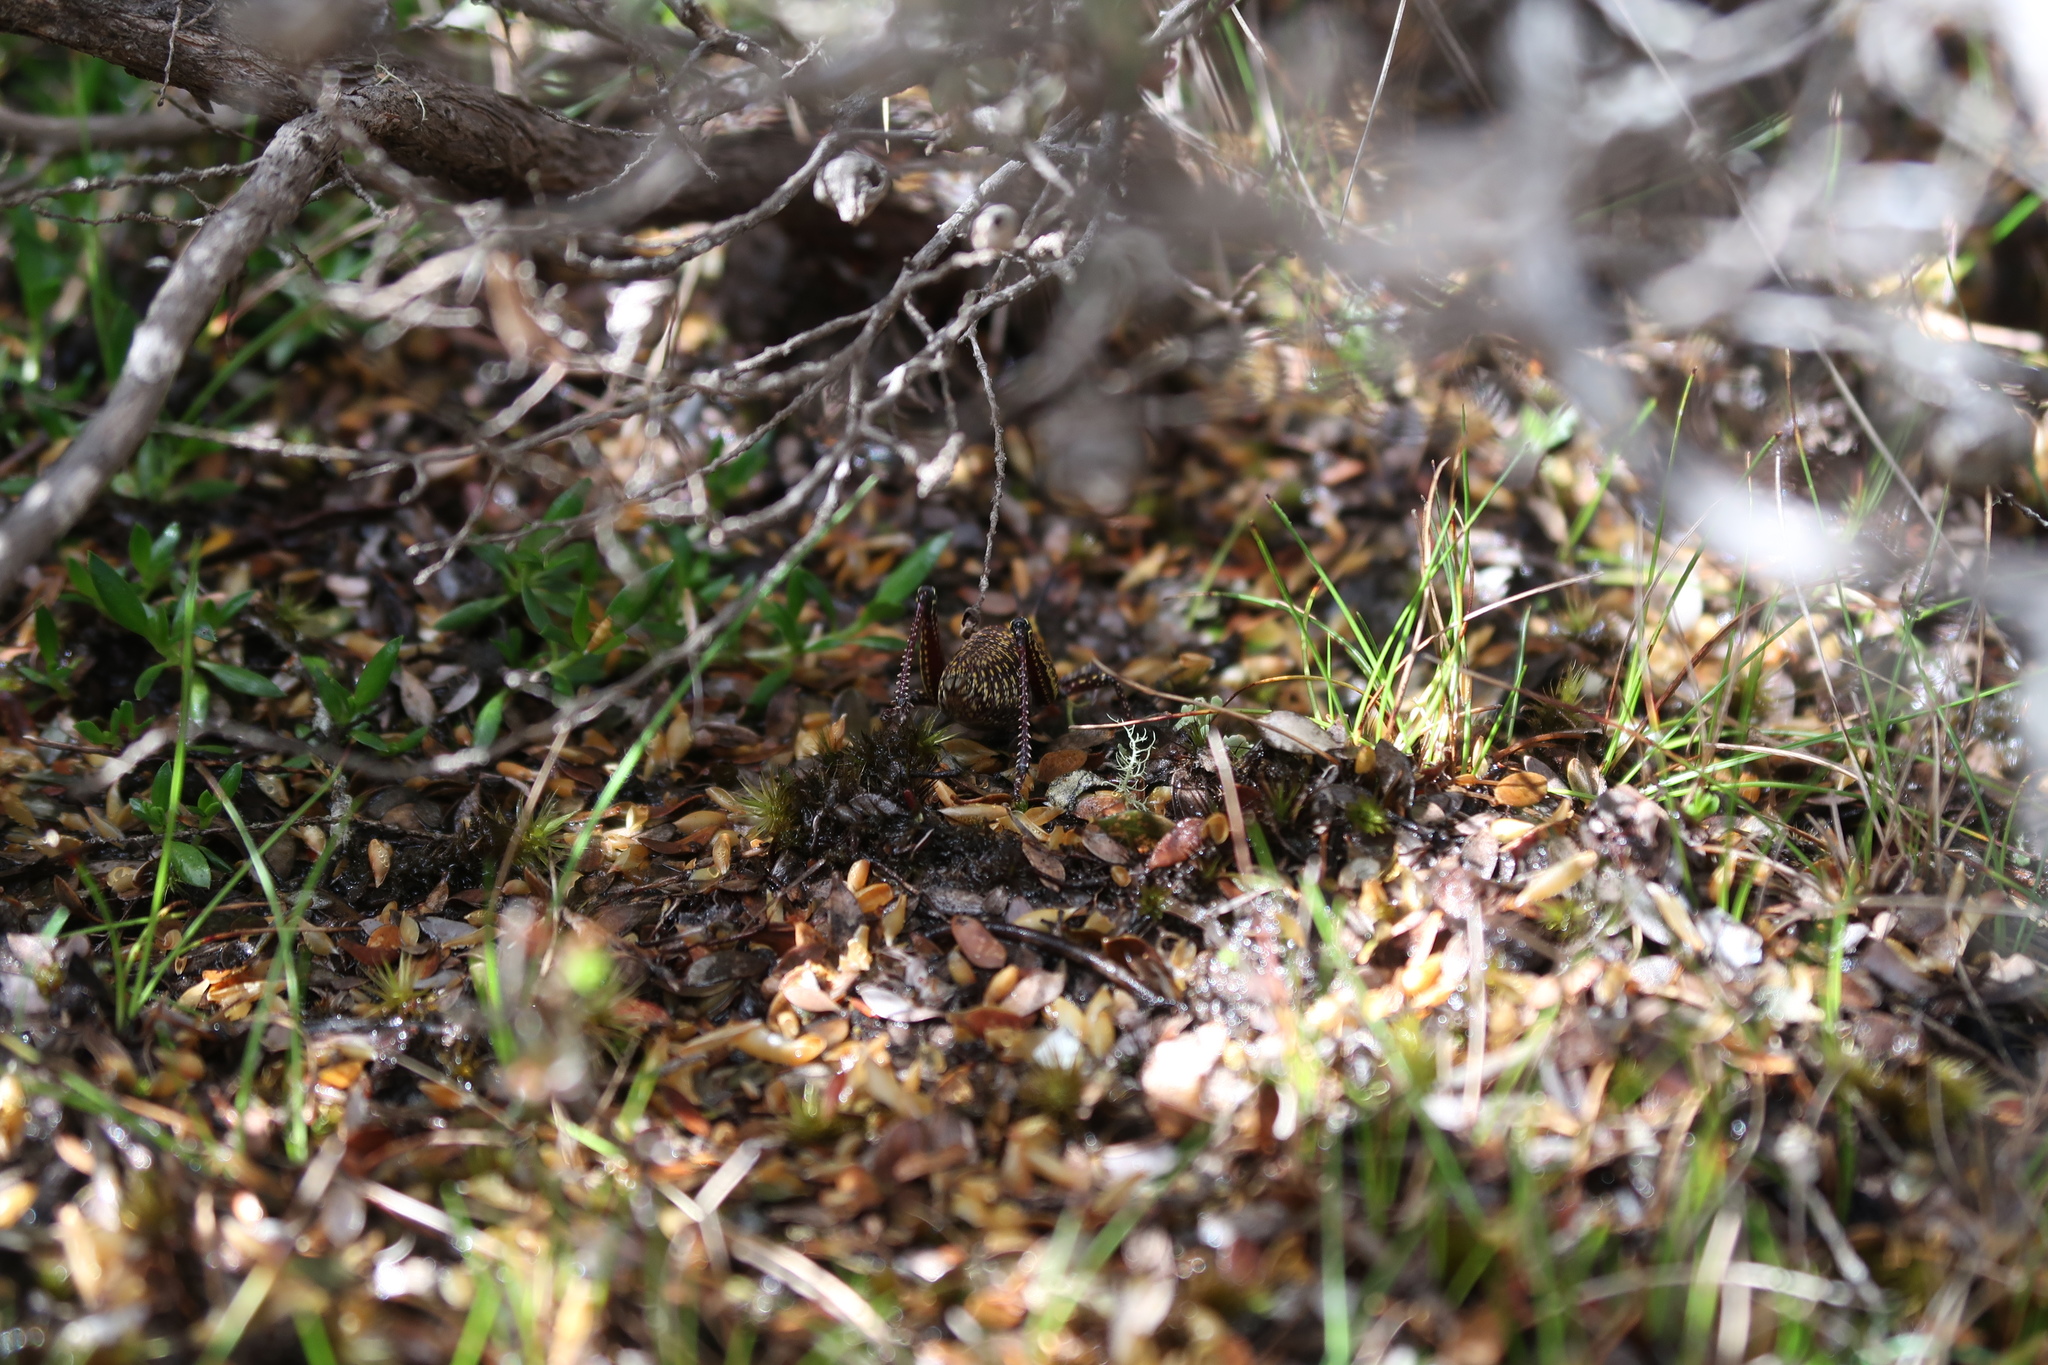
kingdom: Animalia
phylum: Arthropoda
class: Insecta
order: Orthoptera
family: Pyrgomorphidae
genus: Monistria
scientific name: Monistria concinna
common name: Southern pyrgomorph
